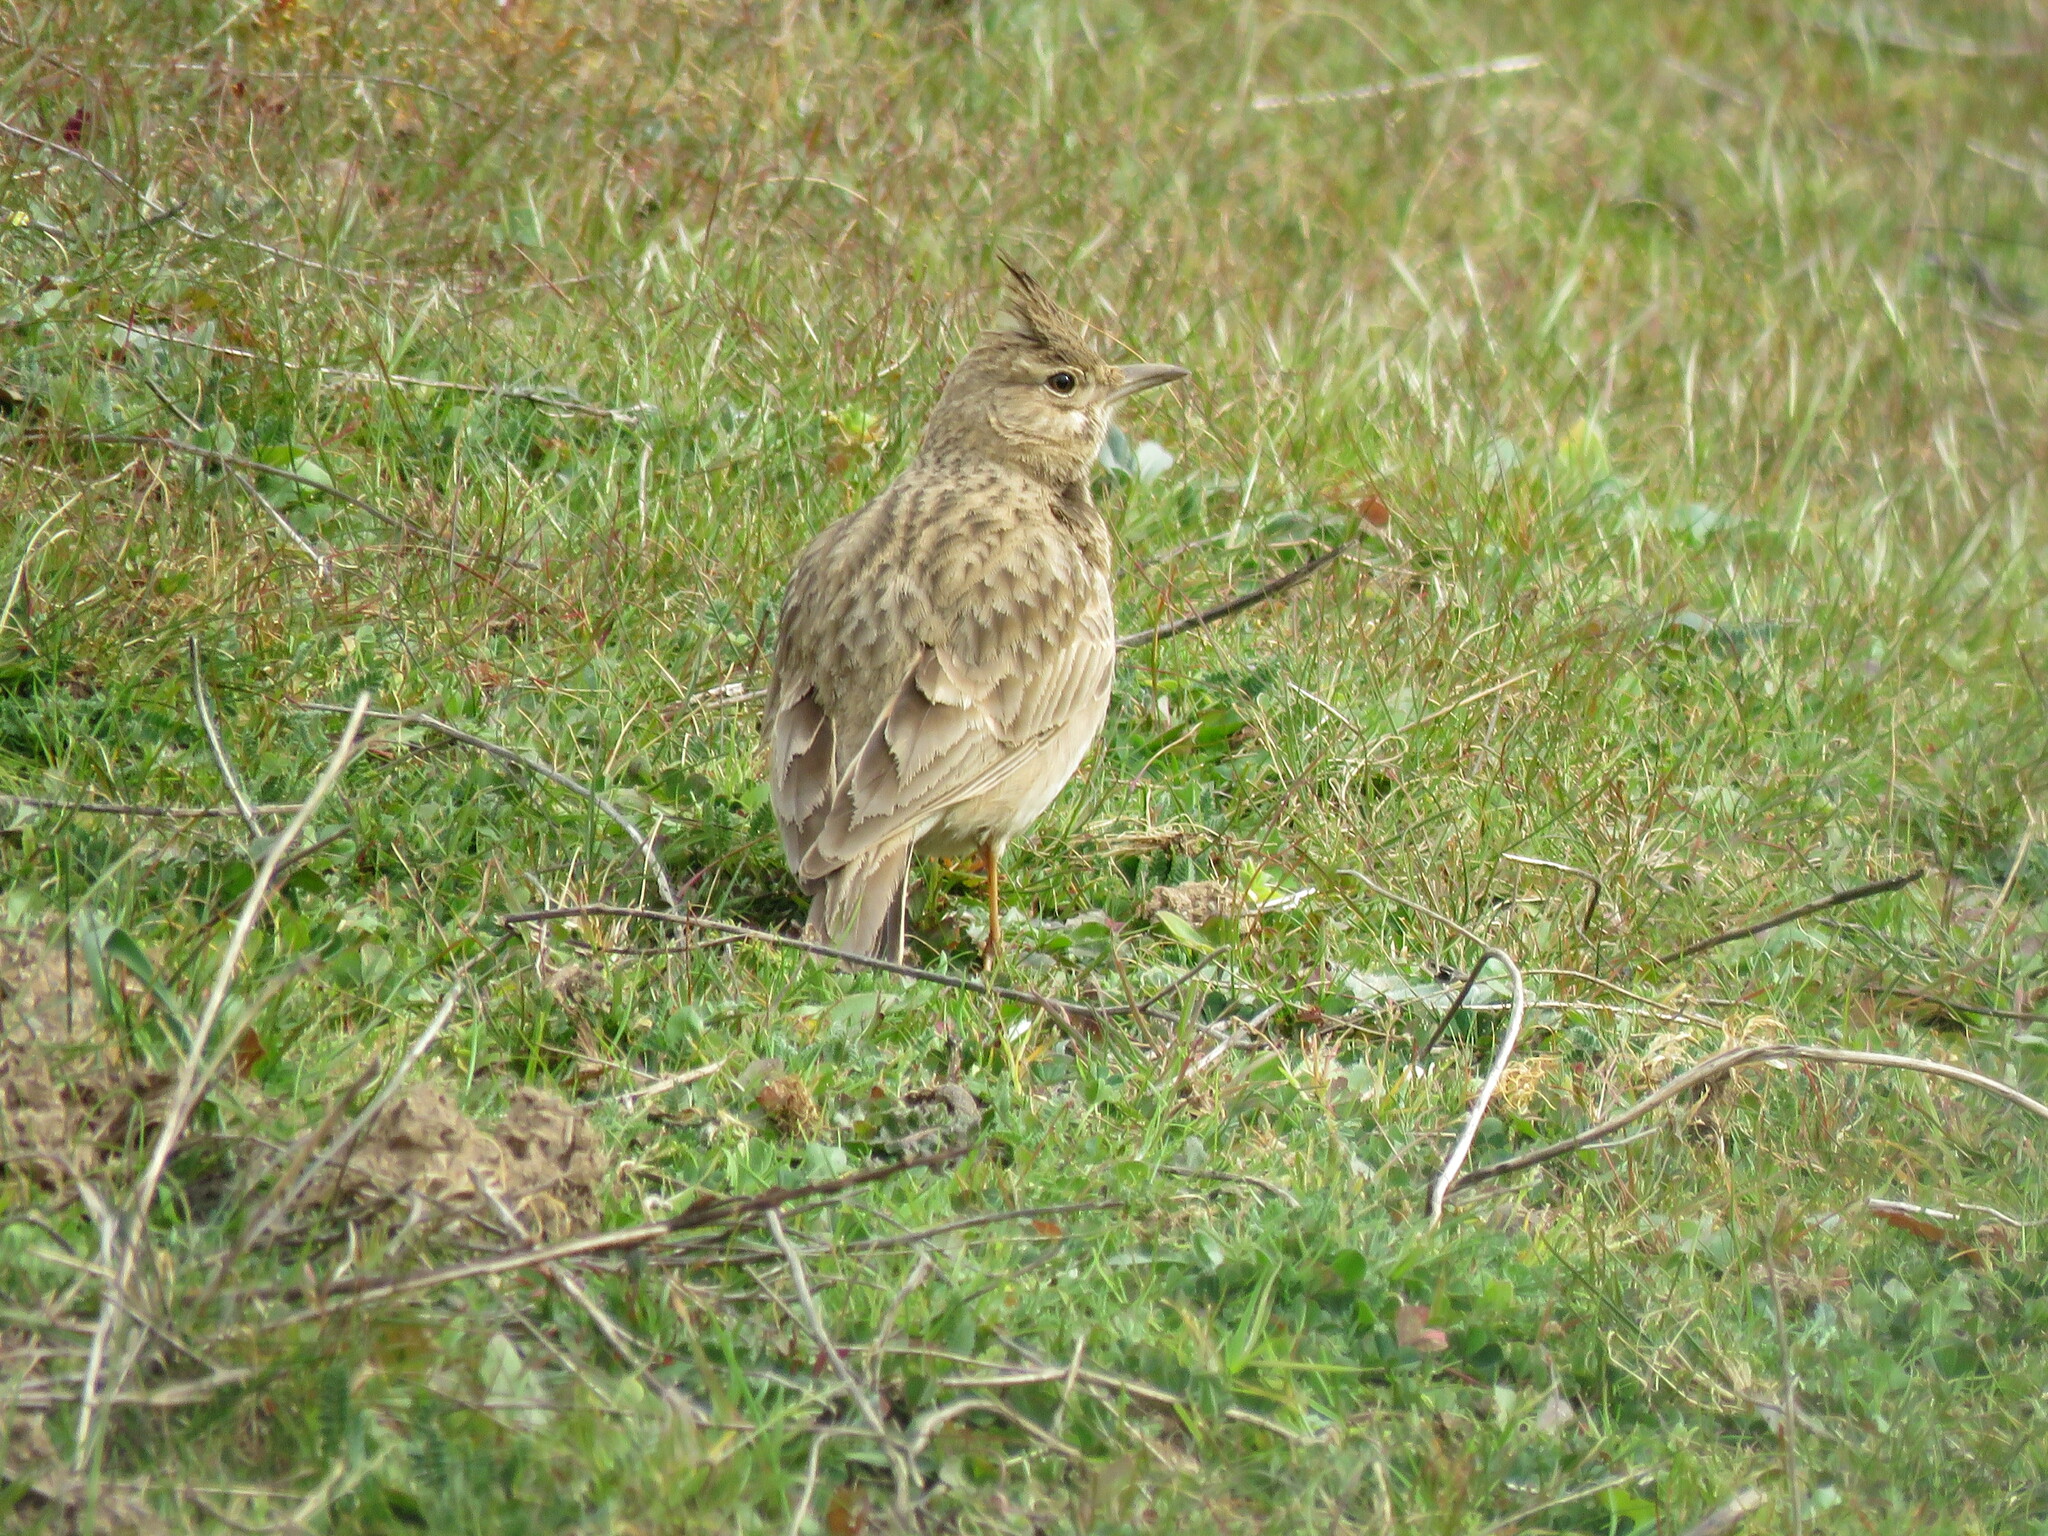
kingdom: Animalia
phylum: Chordata
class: Aves
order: Passeriformes
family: Alaudidae
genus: Galerida
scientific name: Galerida cristata
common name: Crested lark
